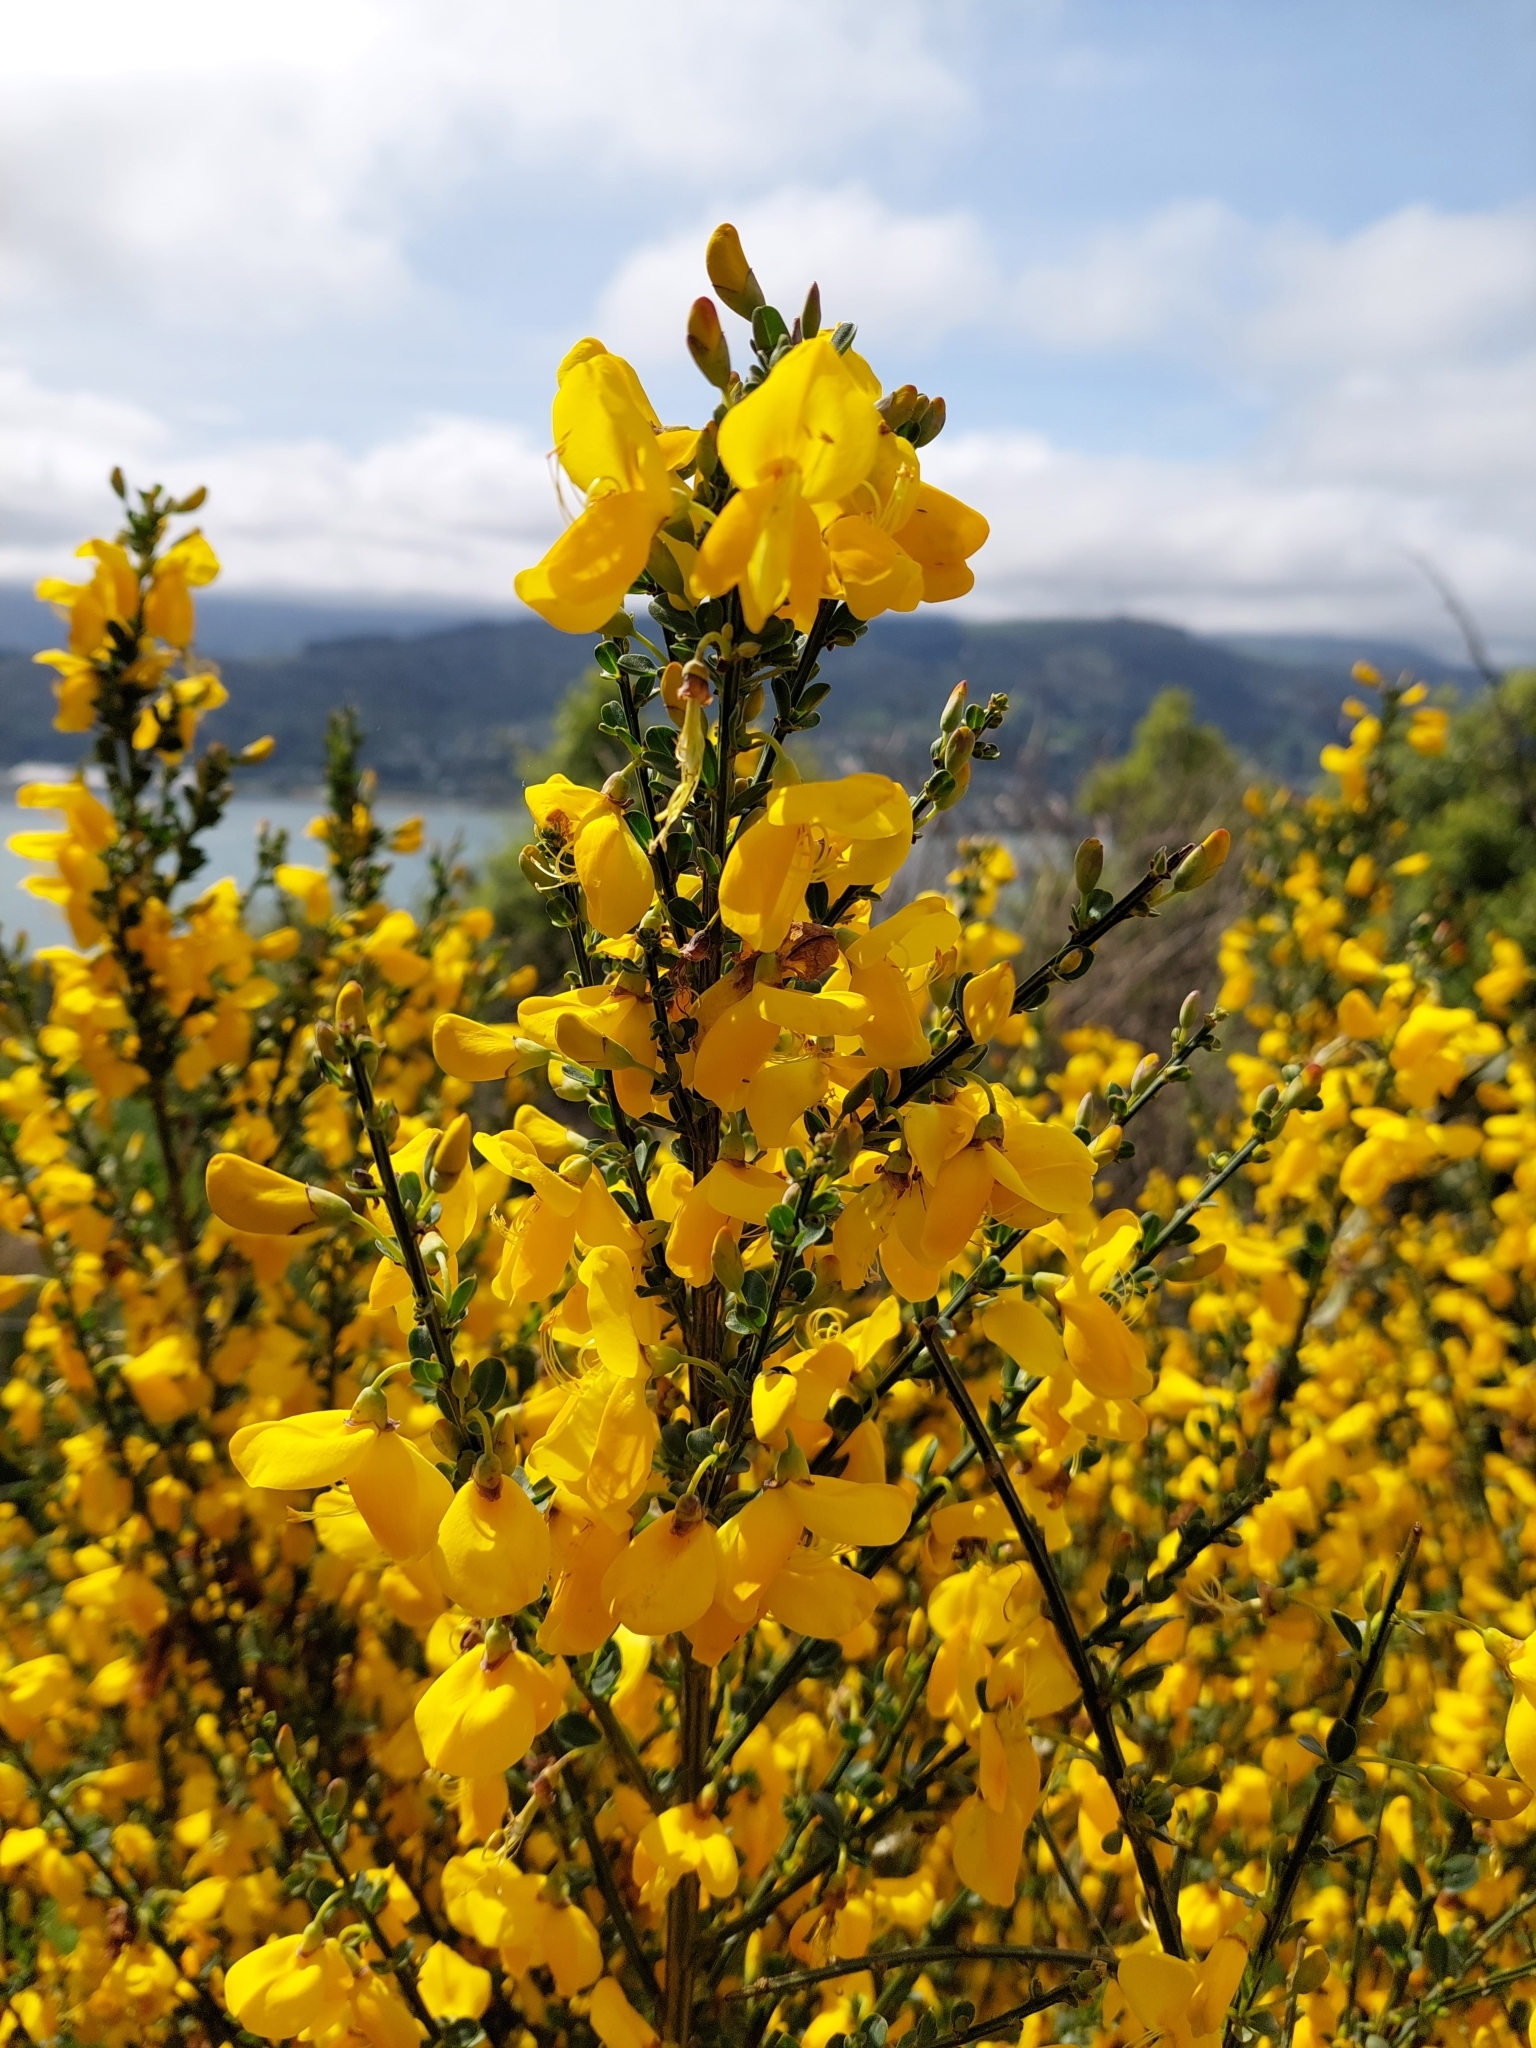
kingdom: Plantae
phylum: Tracheophyta
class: Magnoliopsida
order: Fabales
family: Fabaceae
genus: Cytisus
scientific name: Cytisus scoparius
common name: Scotch broom
